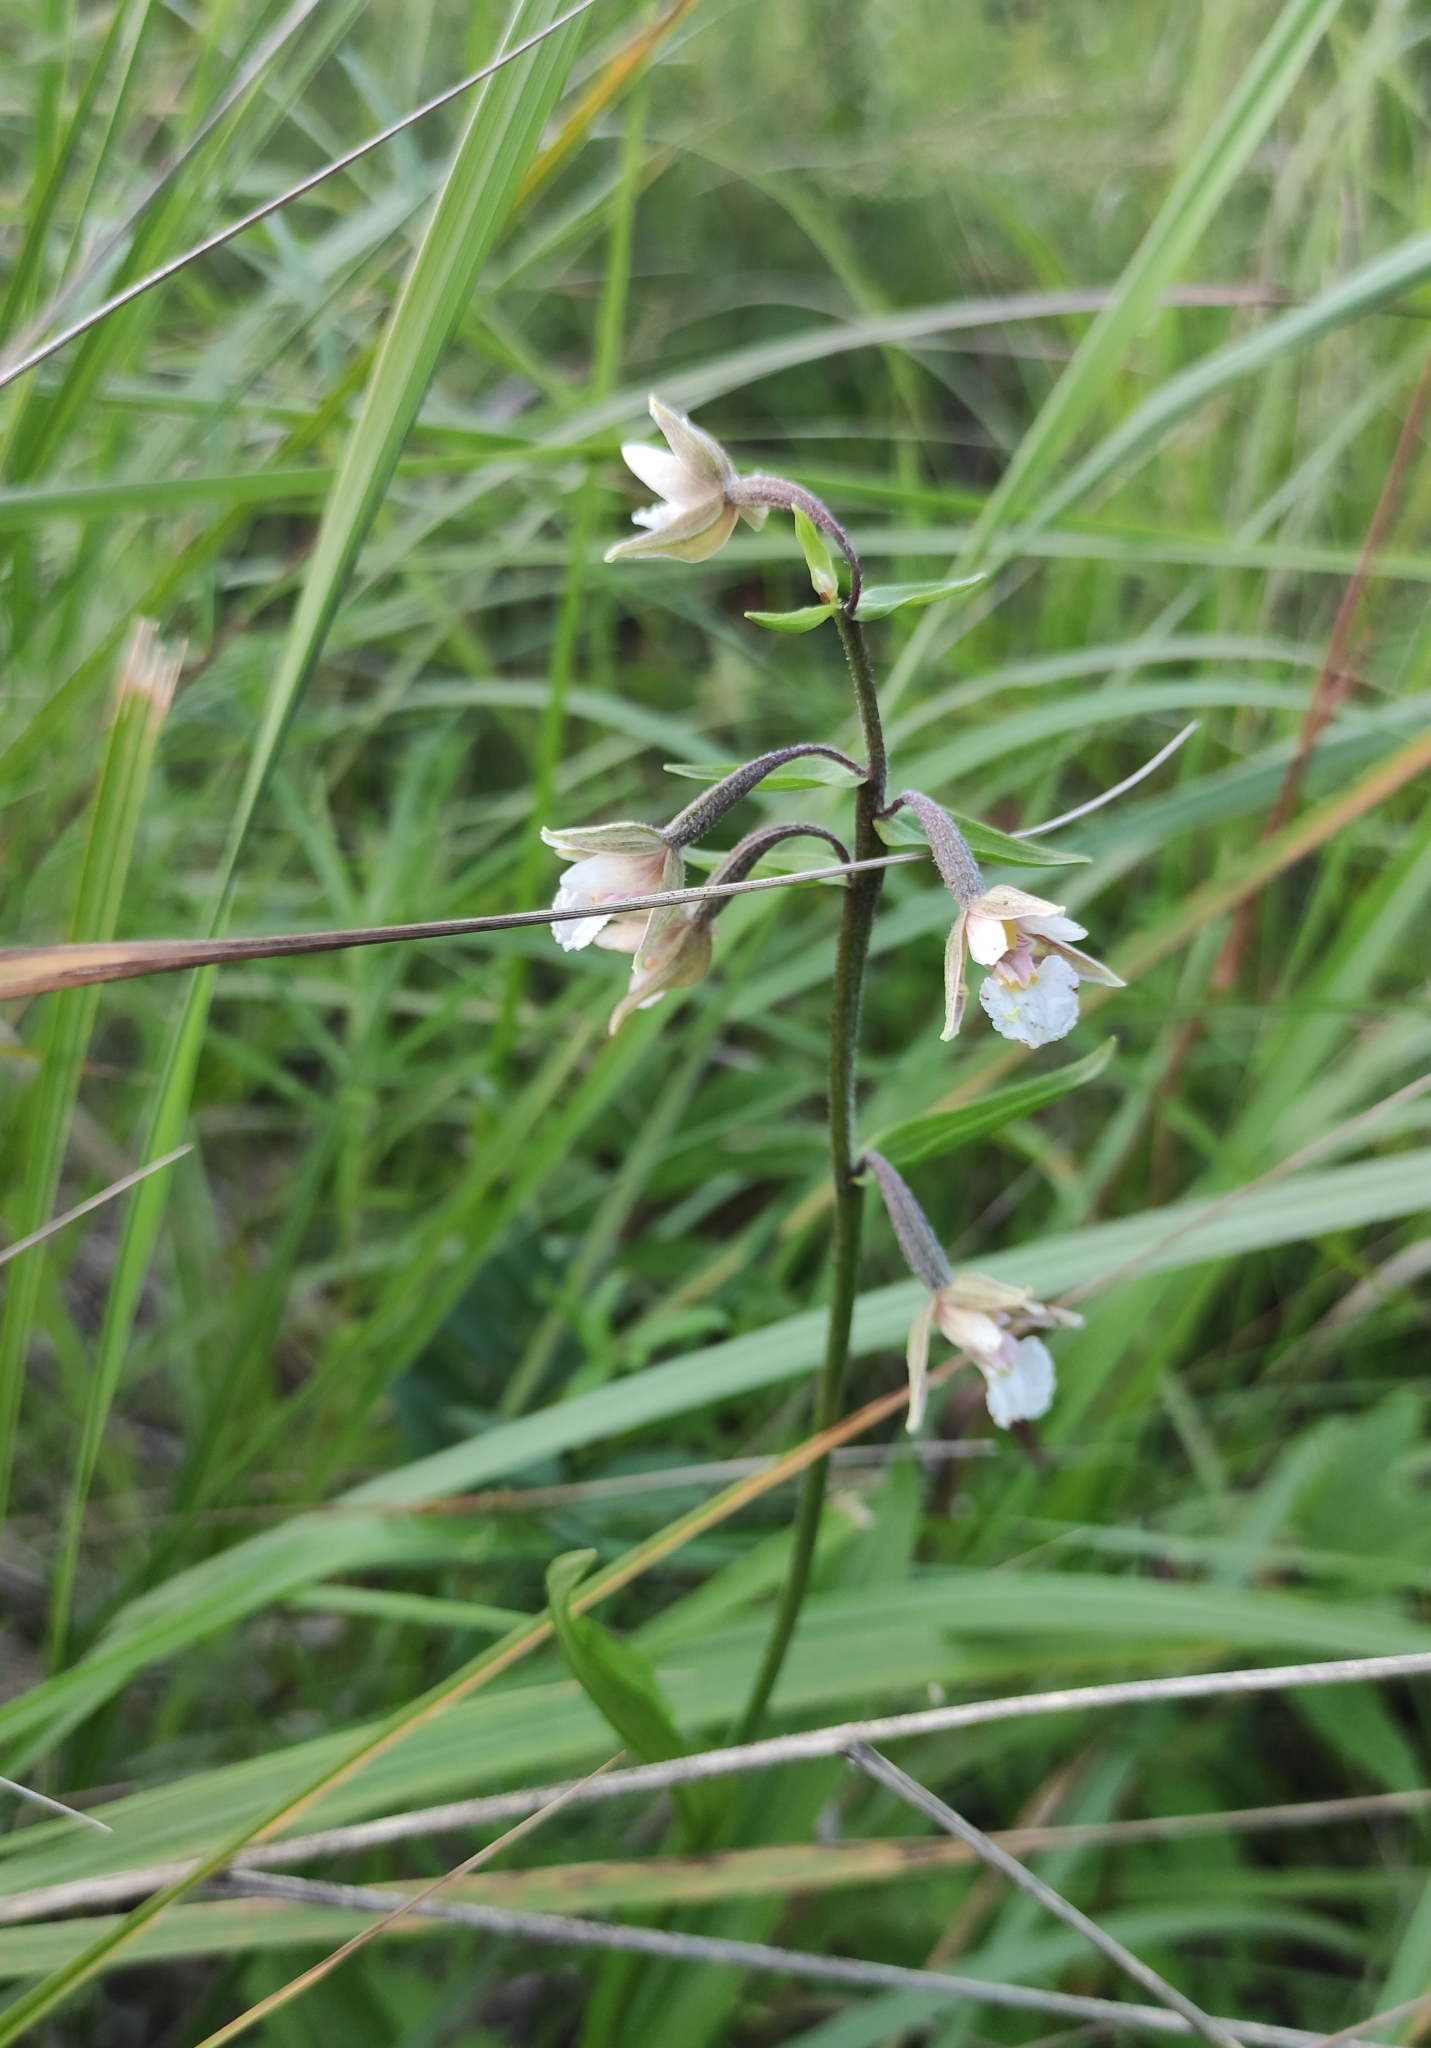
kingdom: Plantae
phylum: Tracheophyta
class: Liliopsida
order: Asparagales
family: Orchidaceae
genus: Epipactis
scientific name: Epipactis palustris
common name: Marsh helleborine
